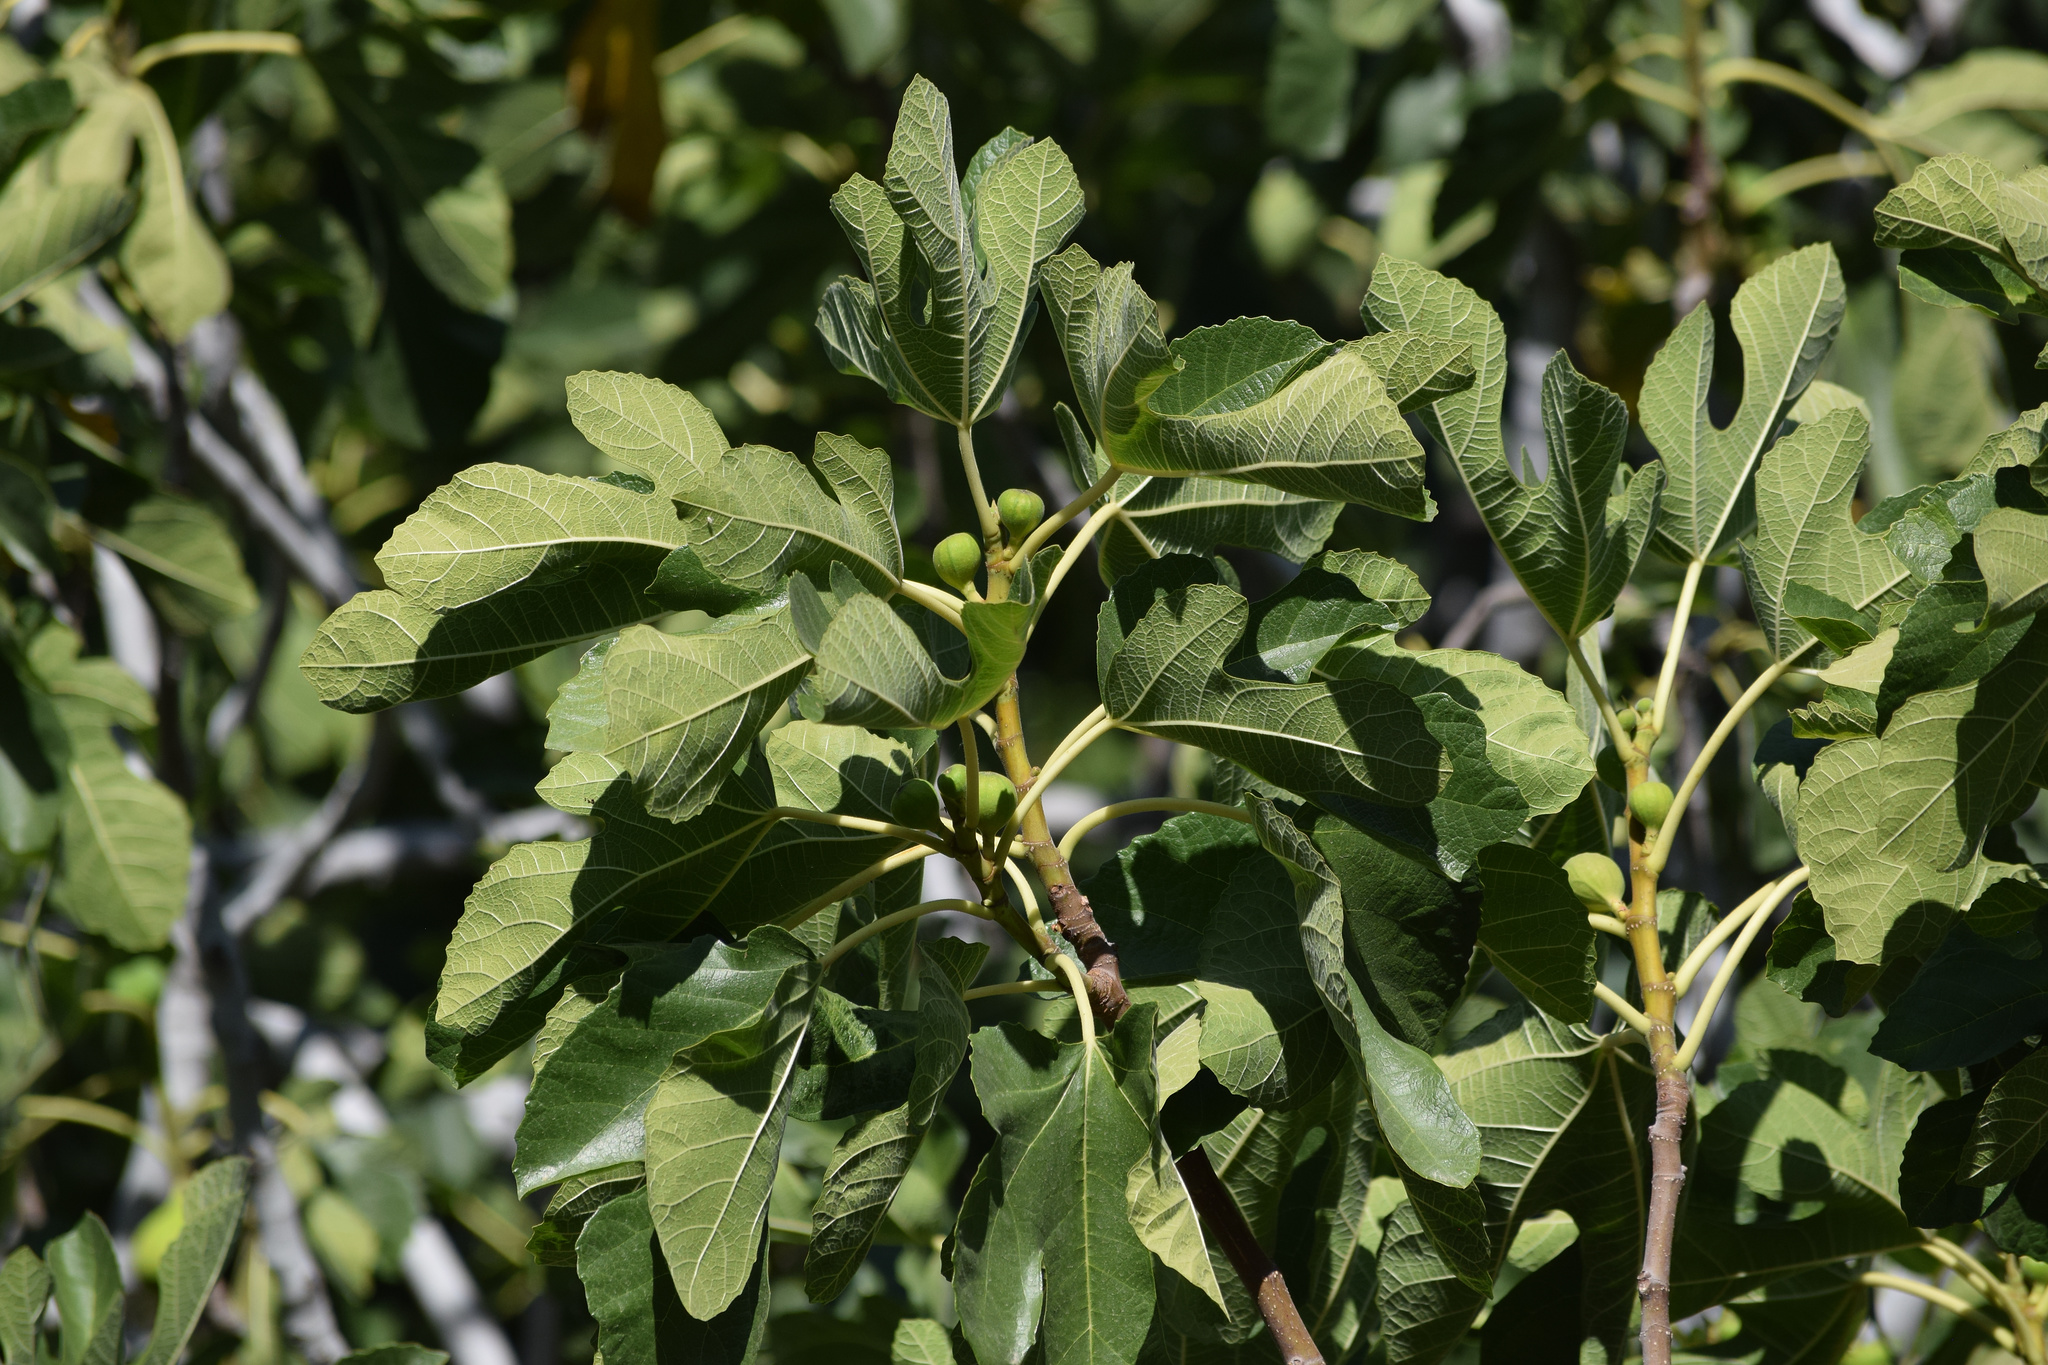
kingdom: Plantae
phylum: Tracheophyta
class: Magnoliopsida
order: Rosales
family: Moraceae
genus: Ficus
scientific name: Ficus carica
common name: Fig
